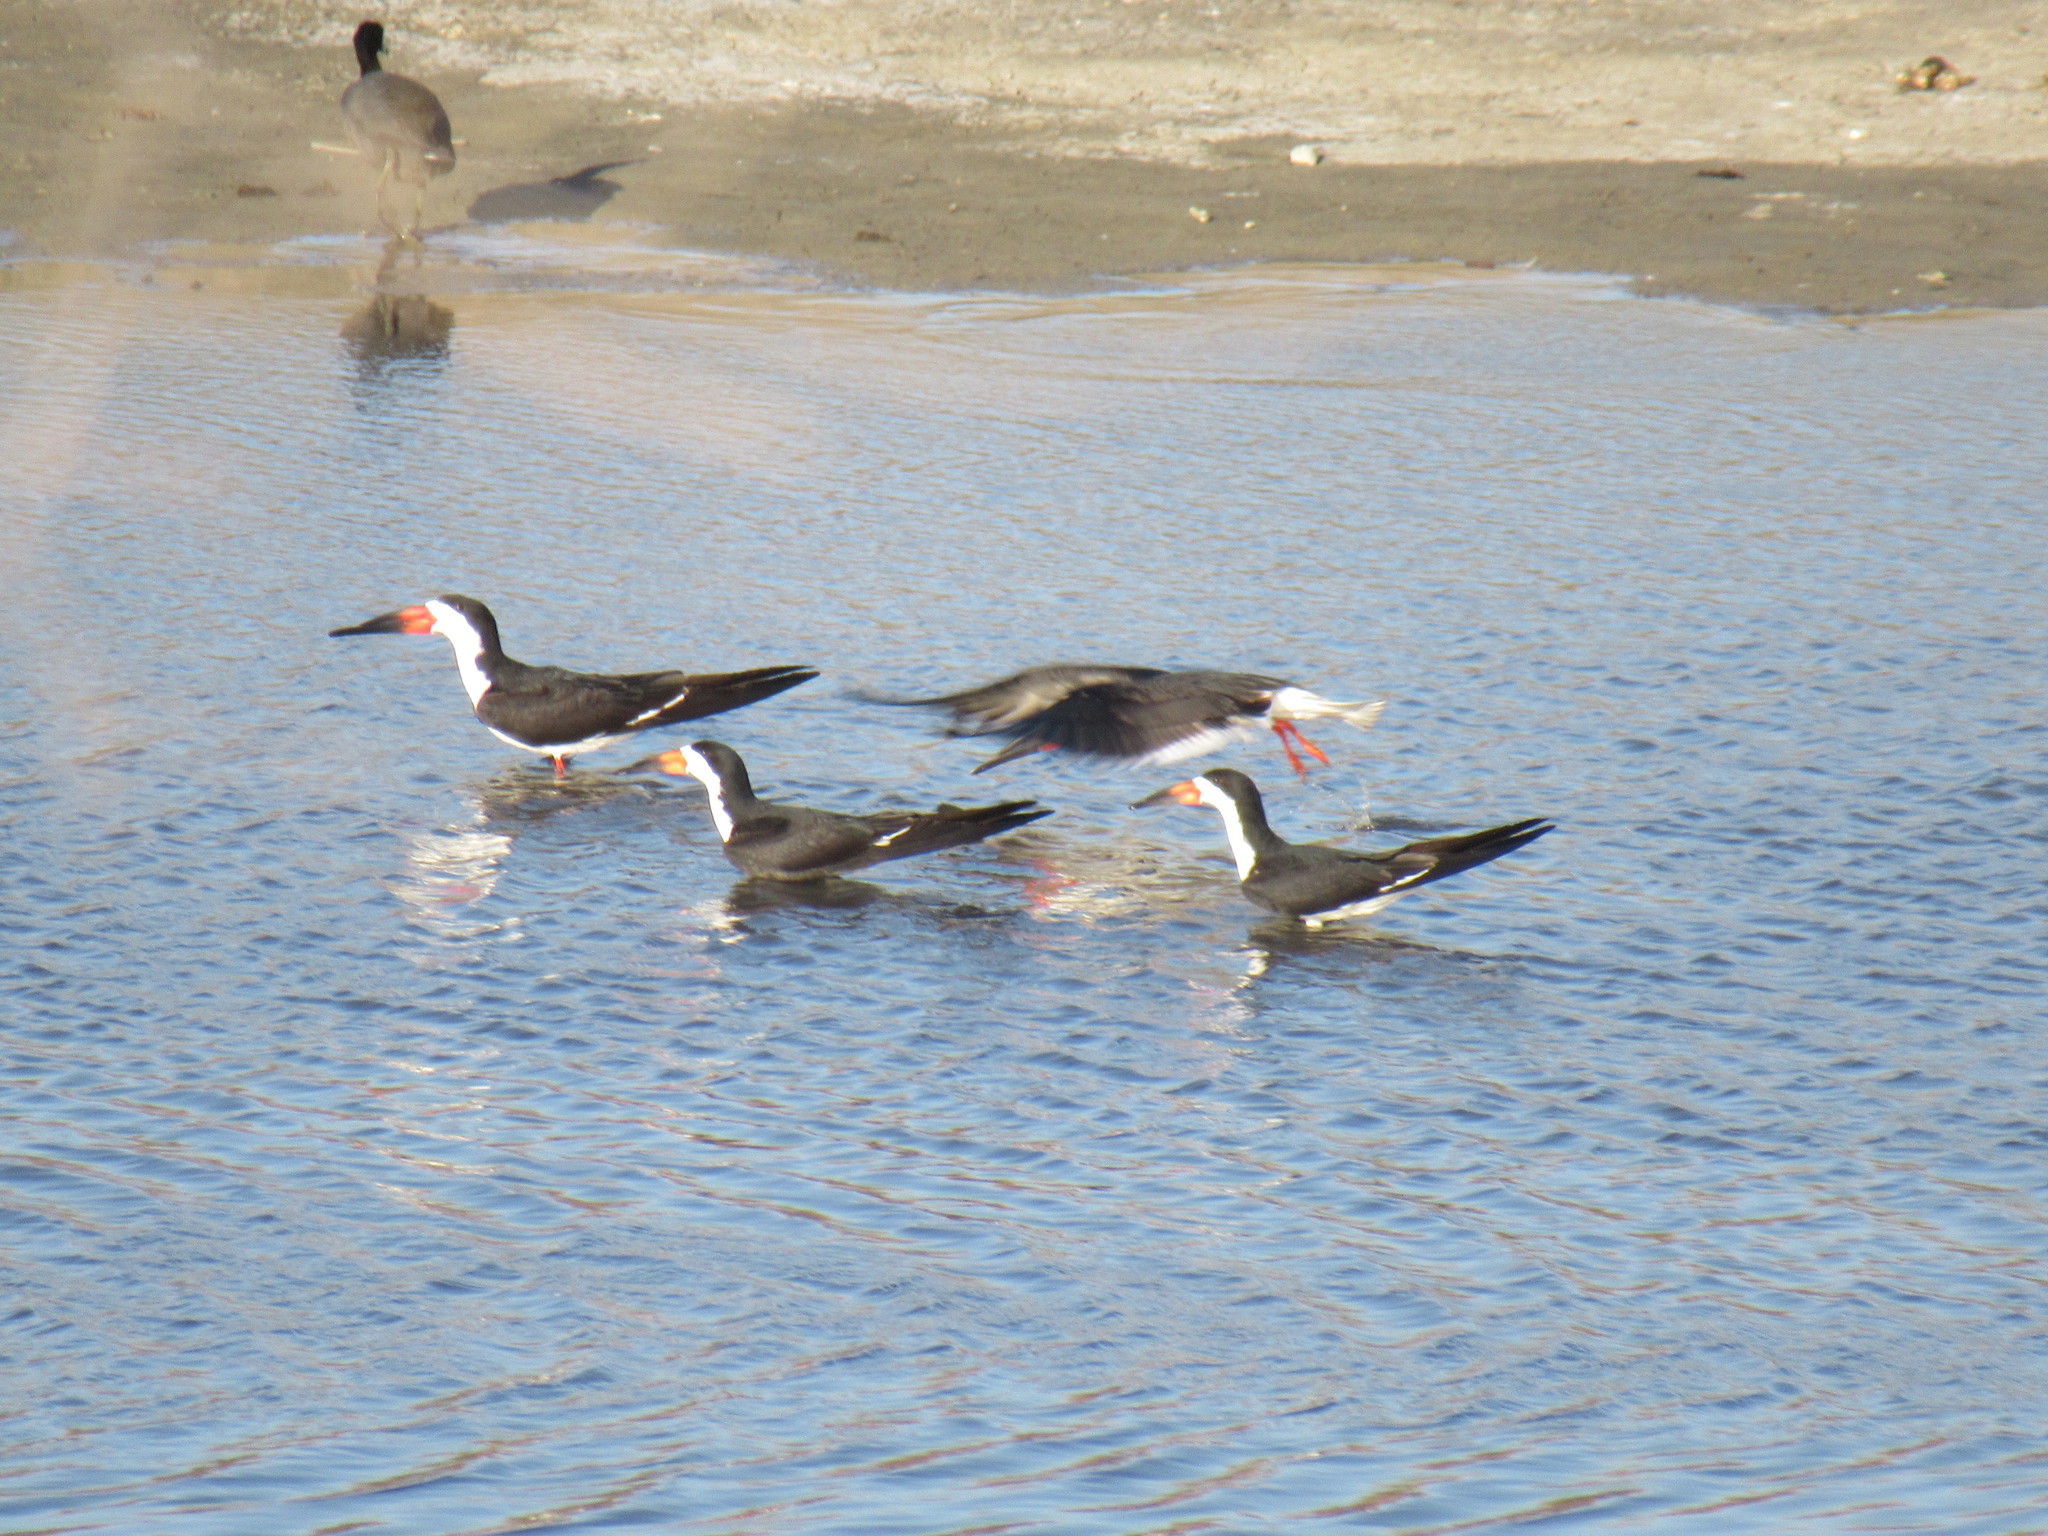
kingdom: Animalia
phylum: Chordata
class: Aves
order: Charadriiformes
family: Laridae
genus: Rynchops
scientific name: Rynchops niger
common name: Black skimmer
